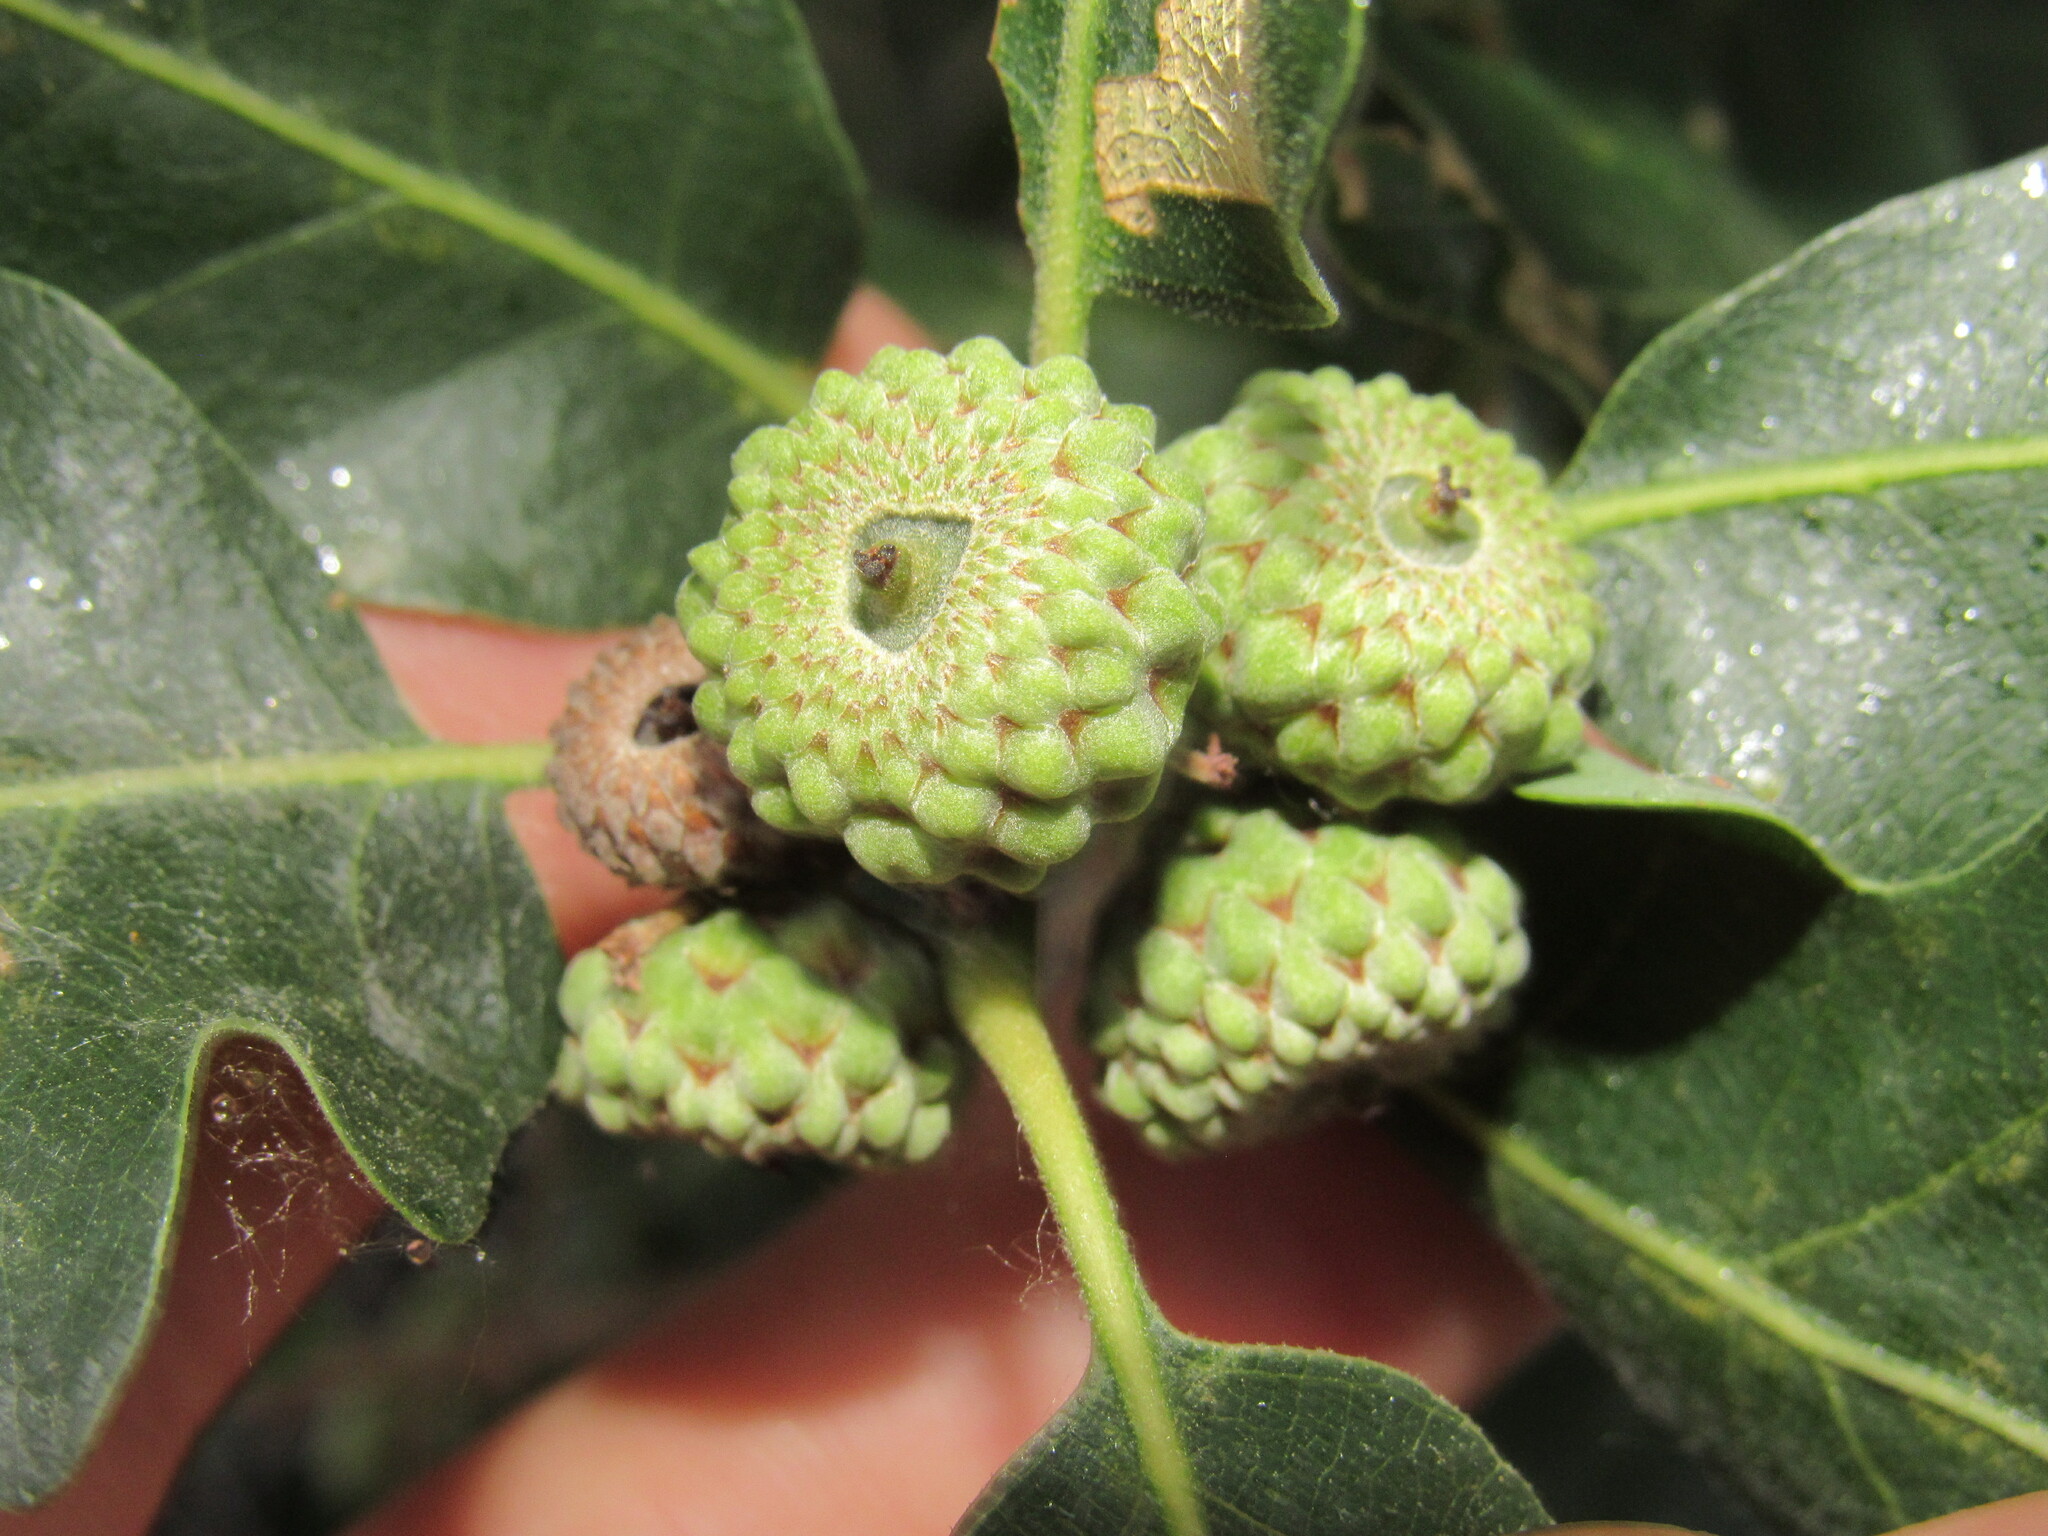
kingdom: Plantae
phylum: Tracheophyta
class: Magnoliopsida
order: Fagales
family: Fagaceae
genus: Quercus
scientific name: Quercus gambelii
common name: Gambel oak
